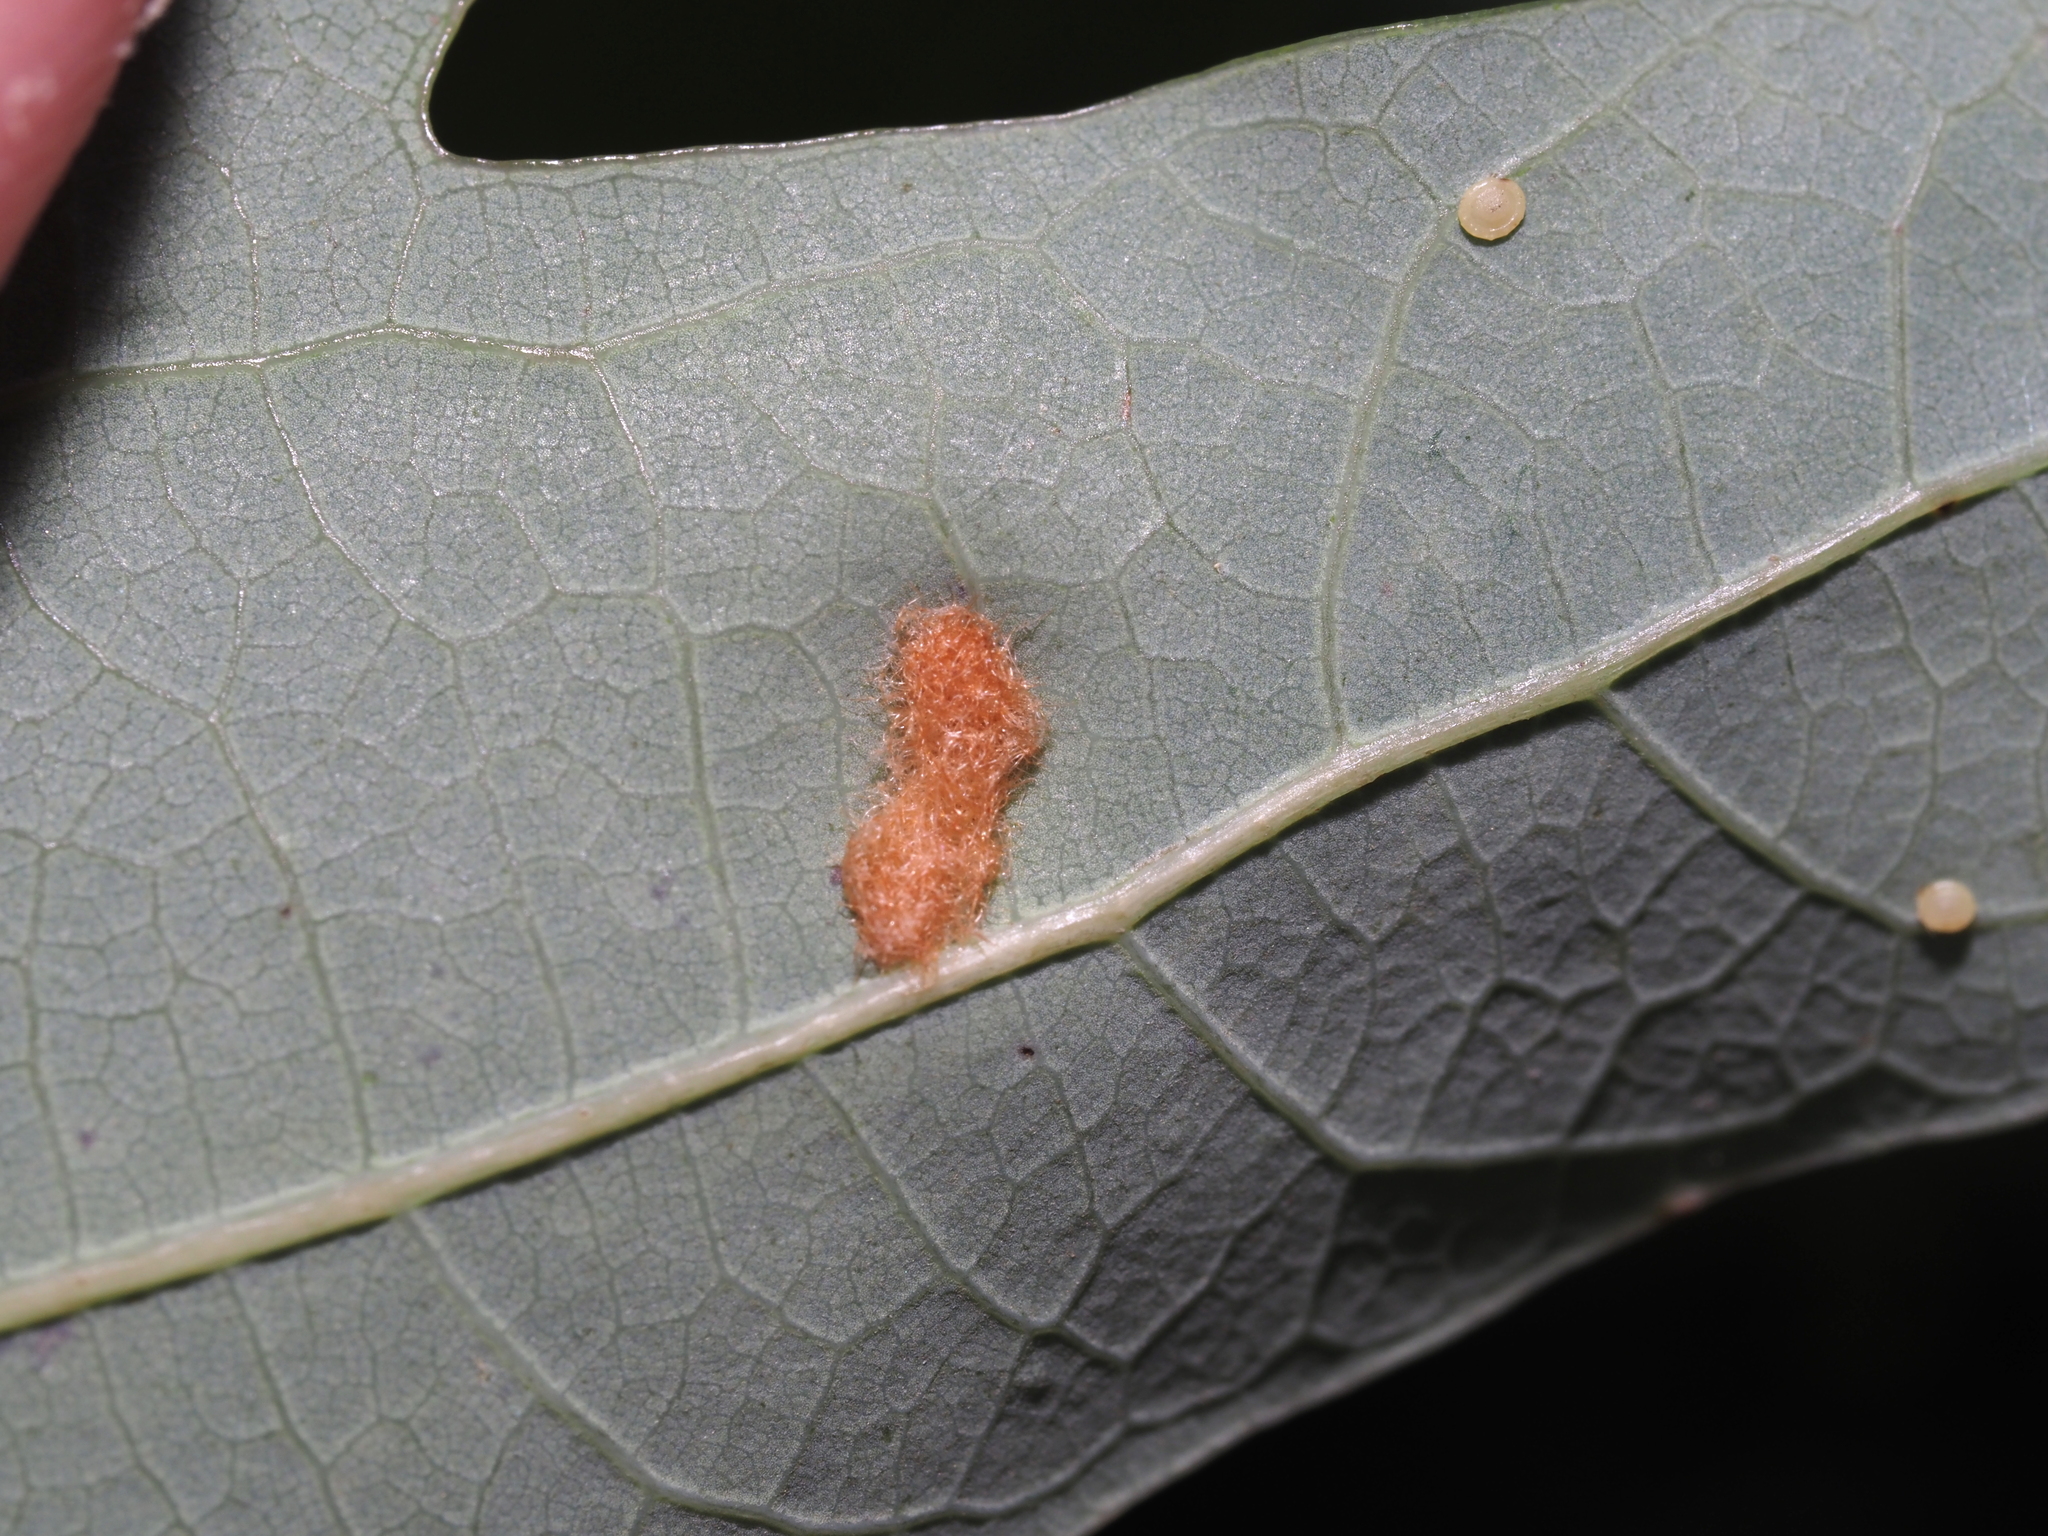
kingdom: Animalia
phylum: Arthropoda
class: Insecta
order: Hymenoptera
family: Cynipidae
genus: Neuroterus
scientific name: Neuroterus quercusverrucarum
